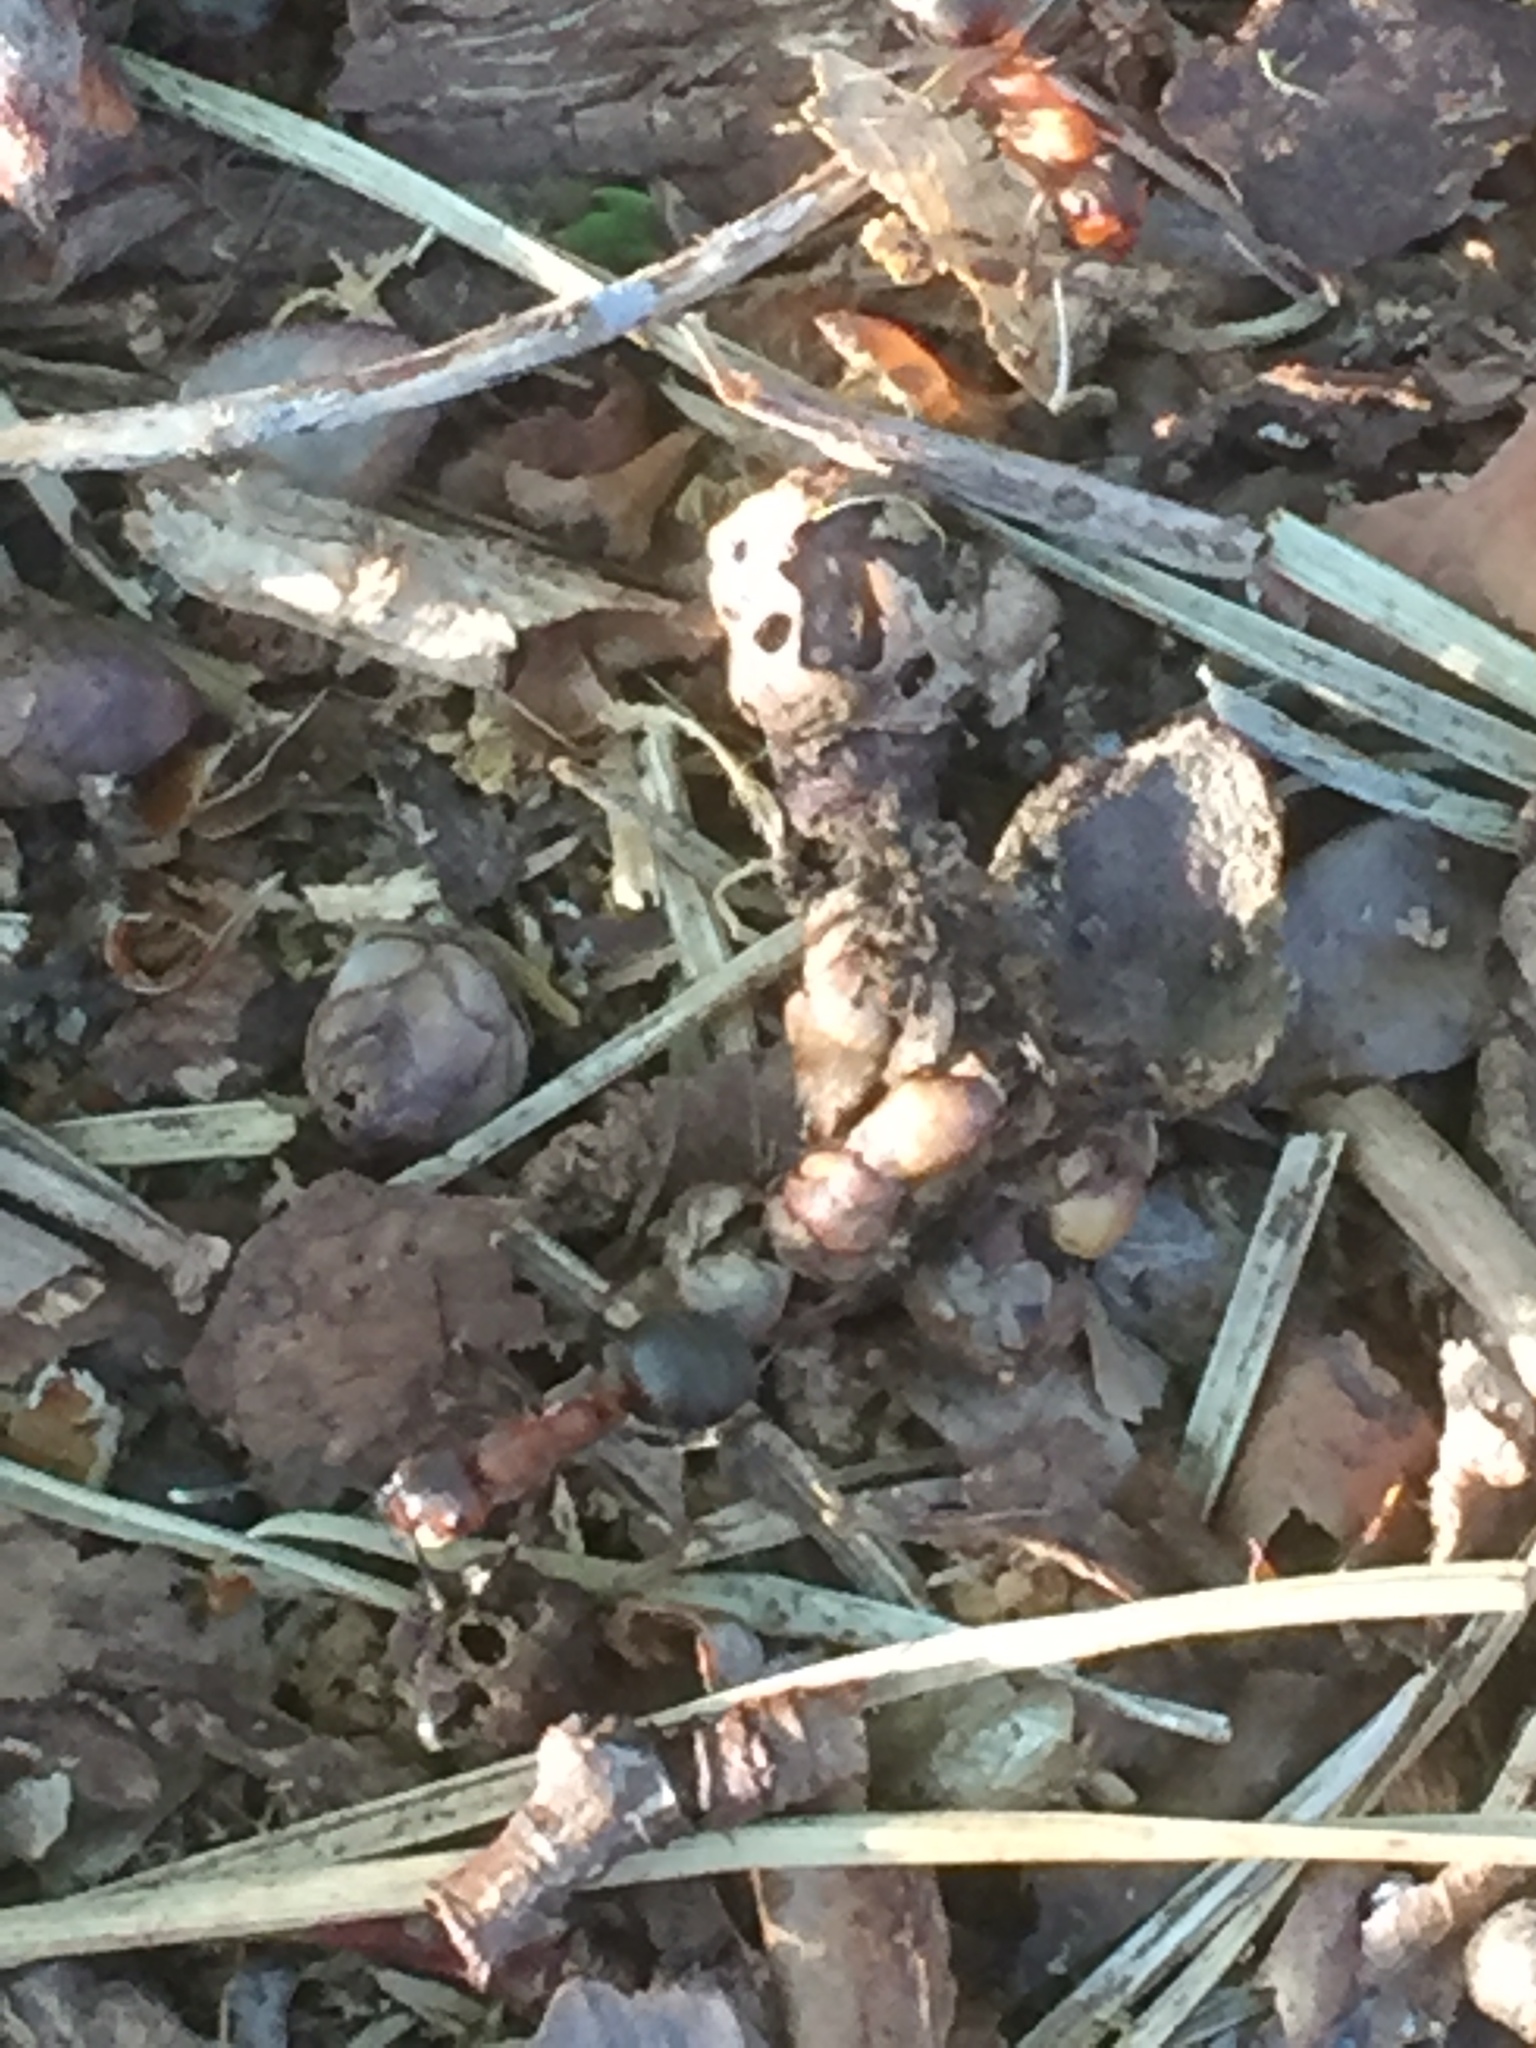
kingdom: Animalia
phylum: Arthropoda
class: Insecta
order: Hymenoptera
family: Formicidae
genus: Formica
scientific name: Formica rufa
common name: Red wood ant
